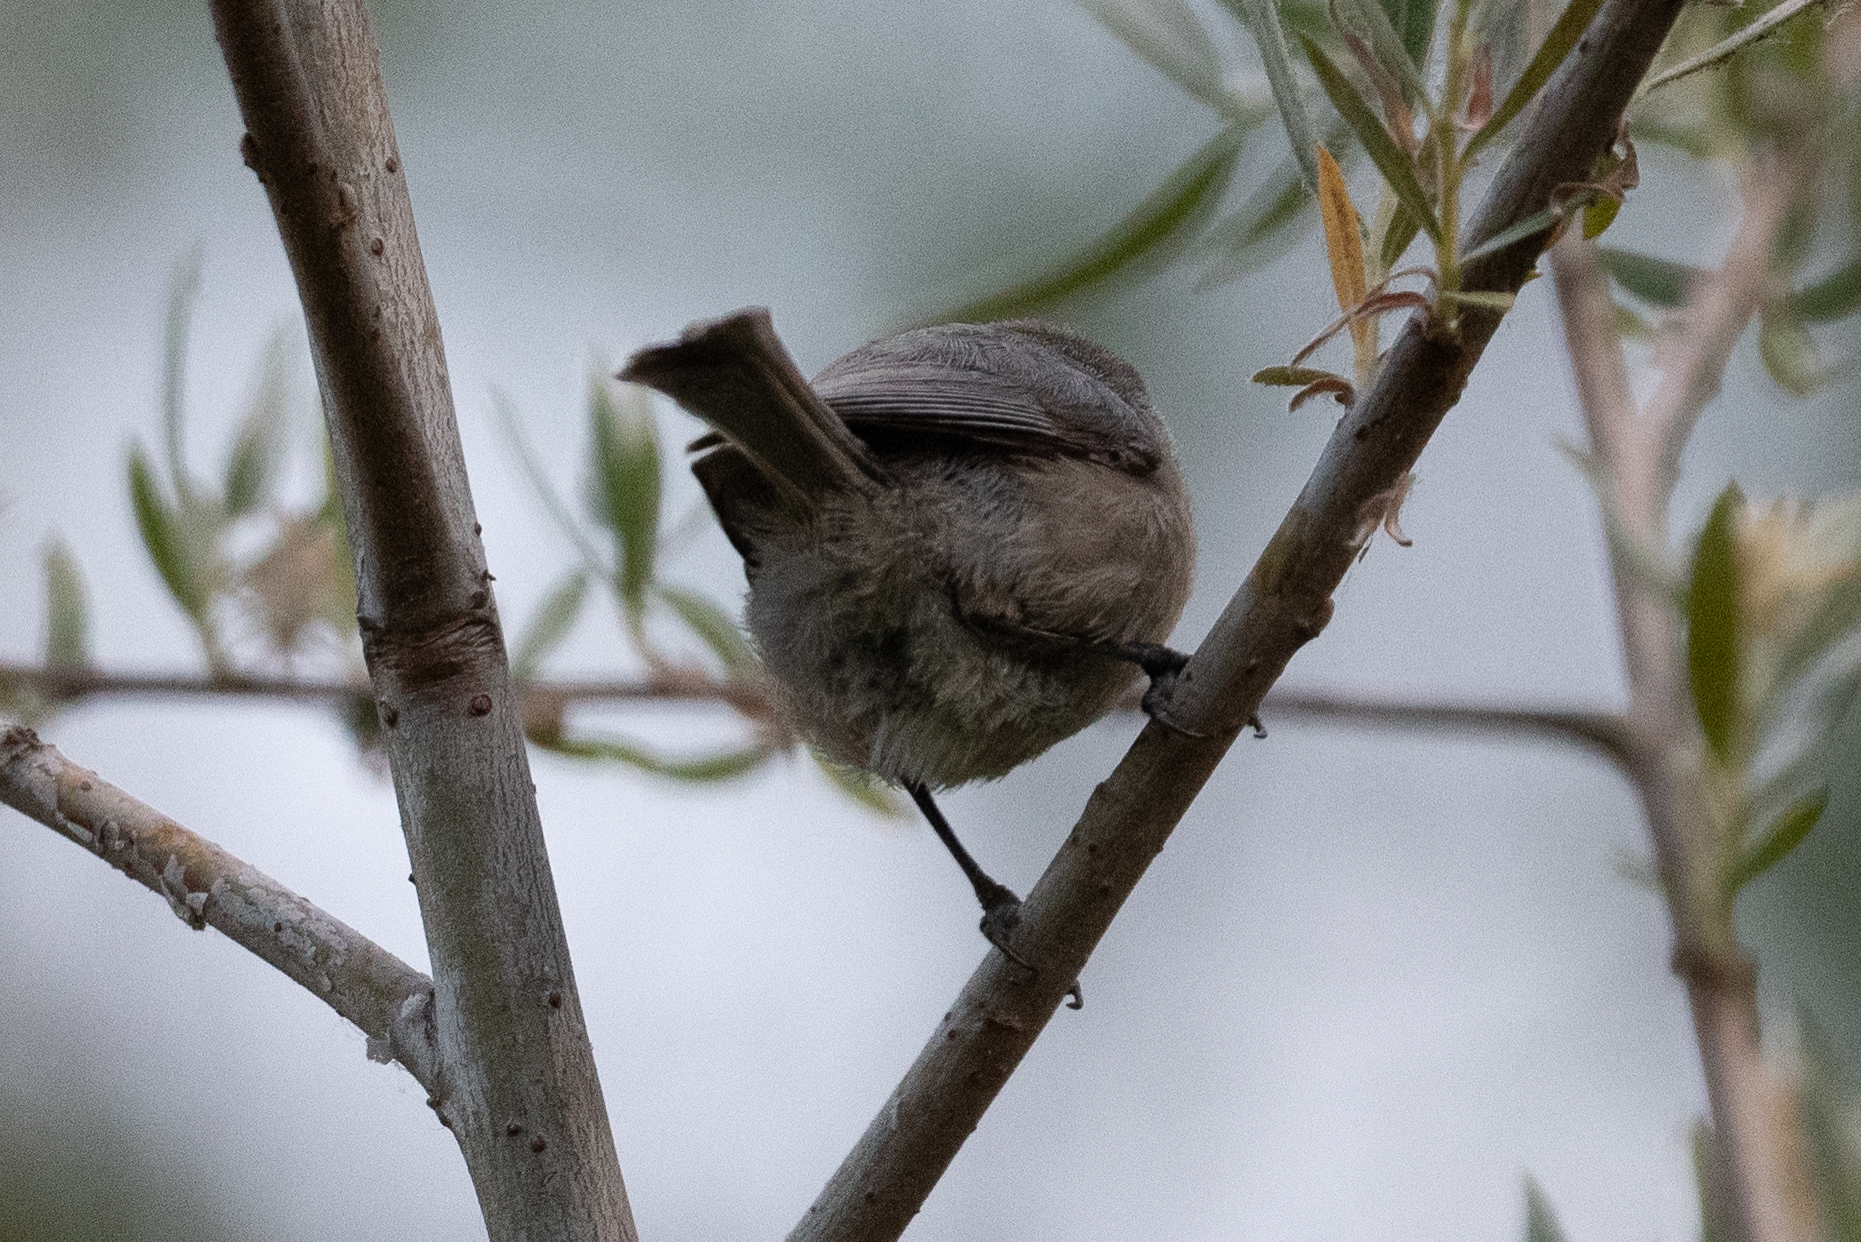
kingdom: Animalia
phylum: Chordata
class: Aves
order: Passeriformes
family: Aegithalidae
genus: Psaltriparus
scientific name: Psaltriparus minimus
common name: American bushtit
